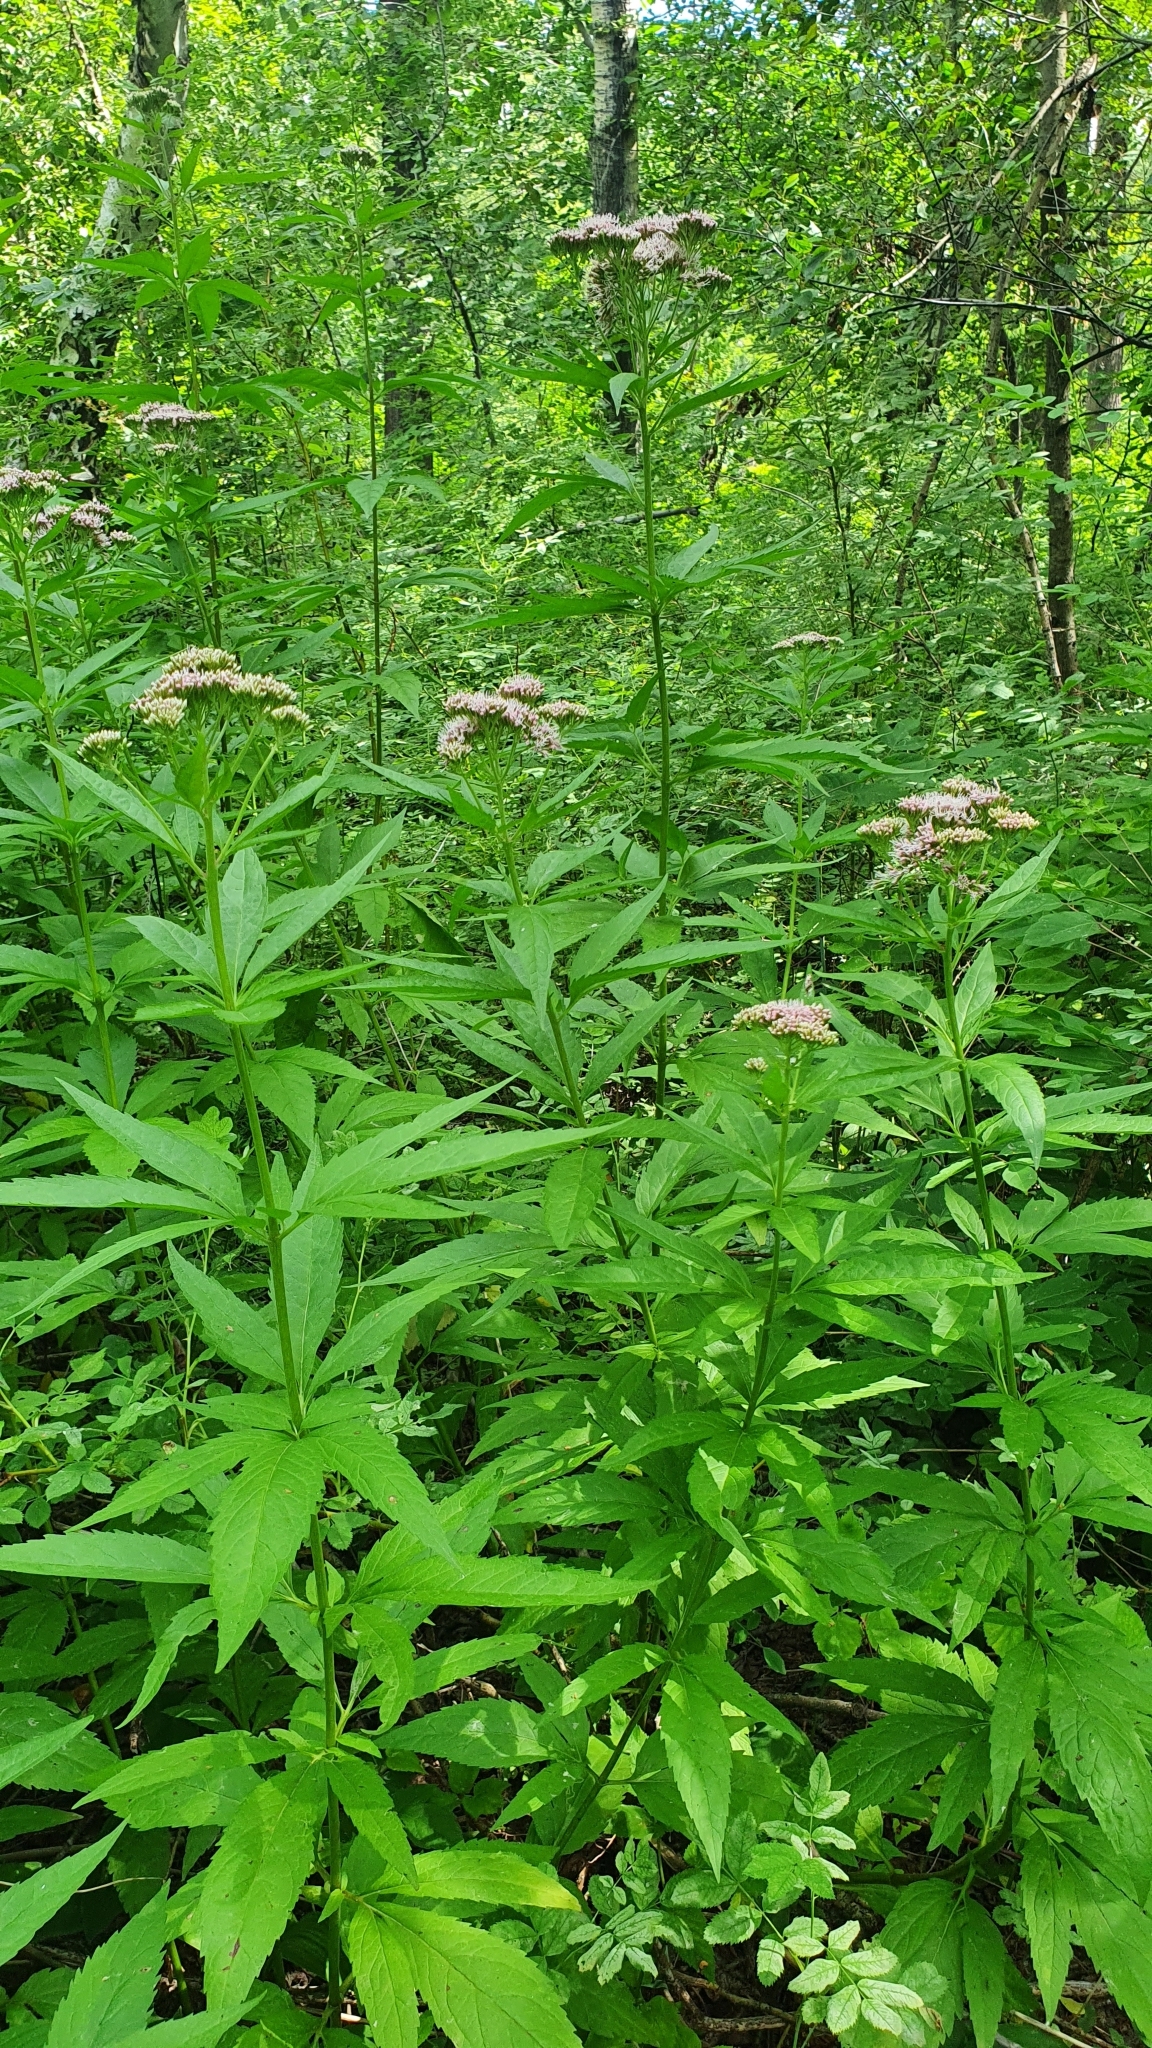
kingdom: Plantae
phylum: Tracheophyta
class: Magnoliopsida
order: Asterales
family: Asteraceae
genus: Eupatorium
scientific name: Eupatorium cannabinum
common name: Hemp-agrimony
